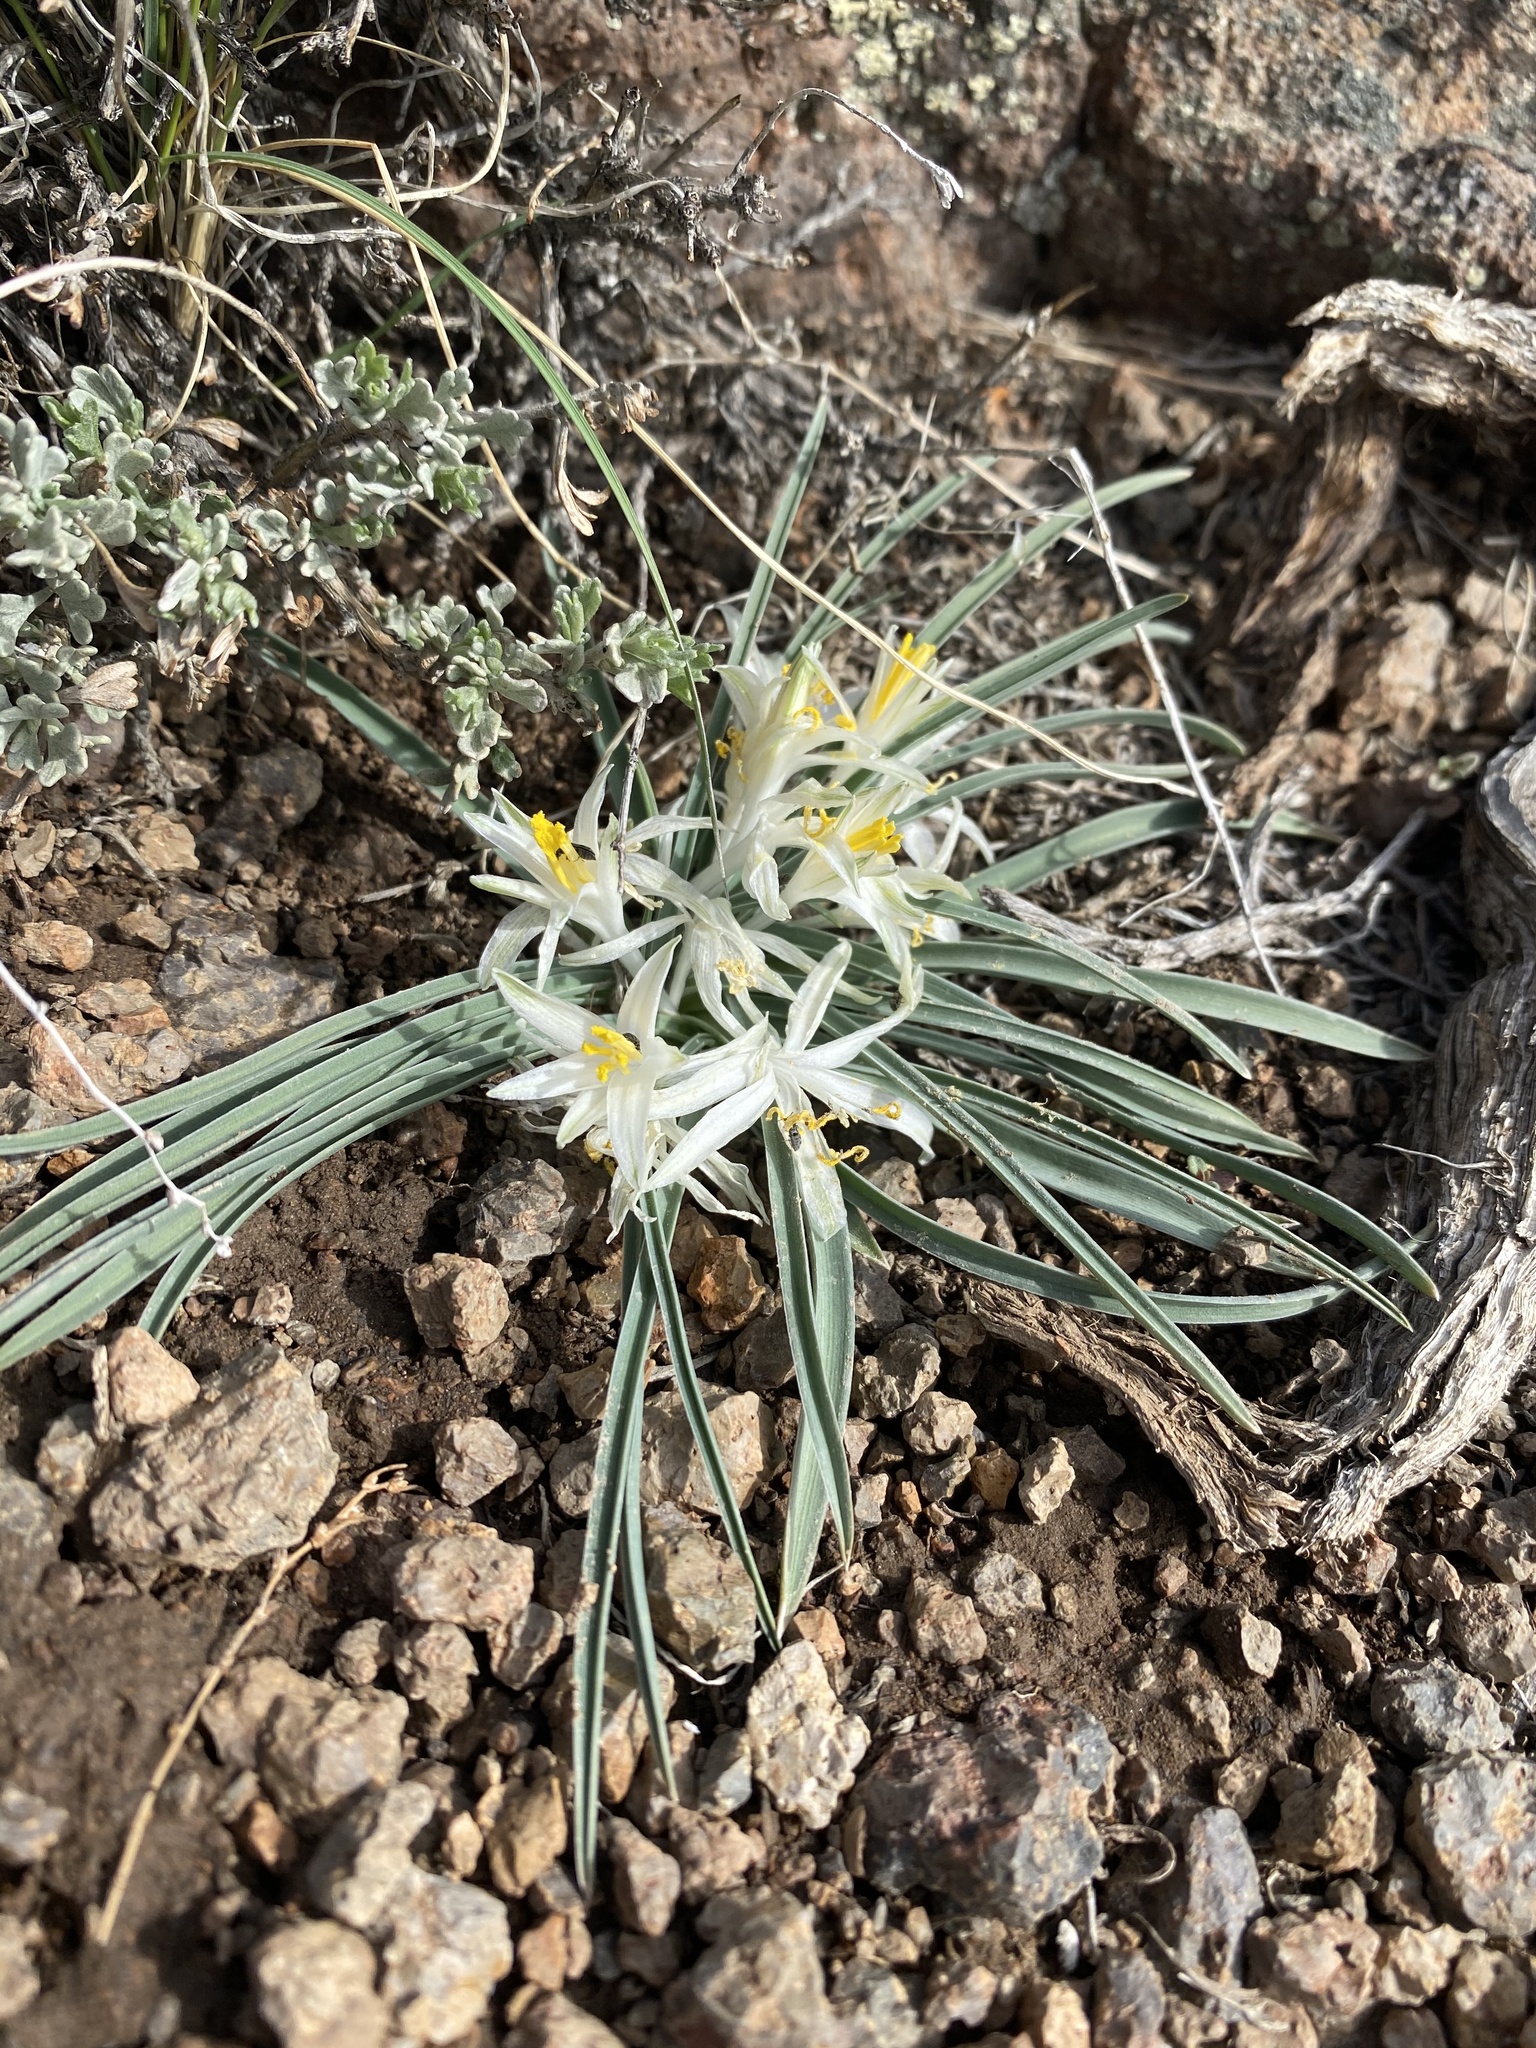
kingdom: Plantae
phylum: Tracheophyta
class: Liliopsida
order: Asparagales
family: Asparagaceae
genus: Leucocrinum
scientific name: Leucocrinum montanum
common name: Mountain-lily
